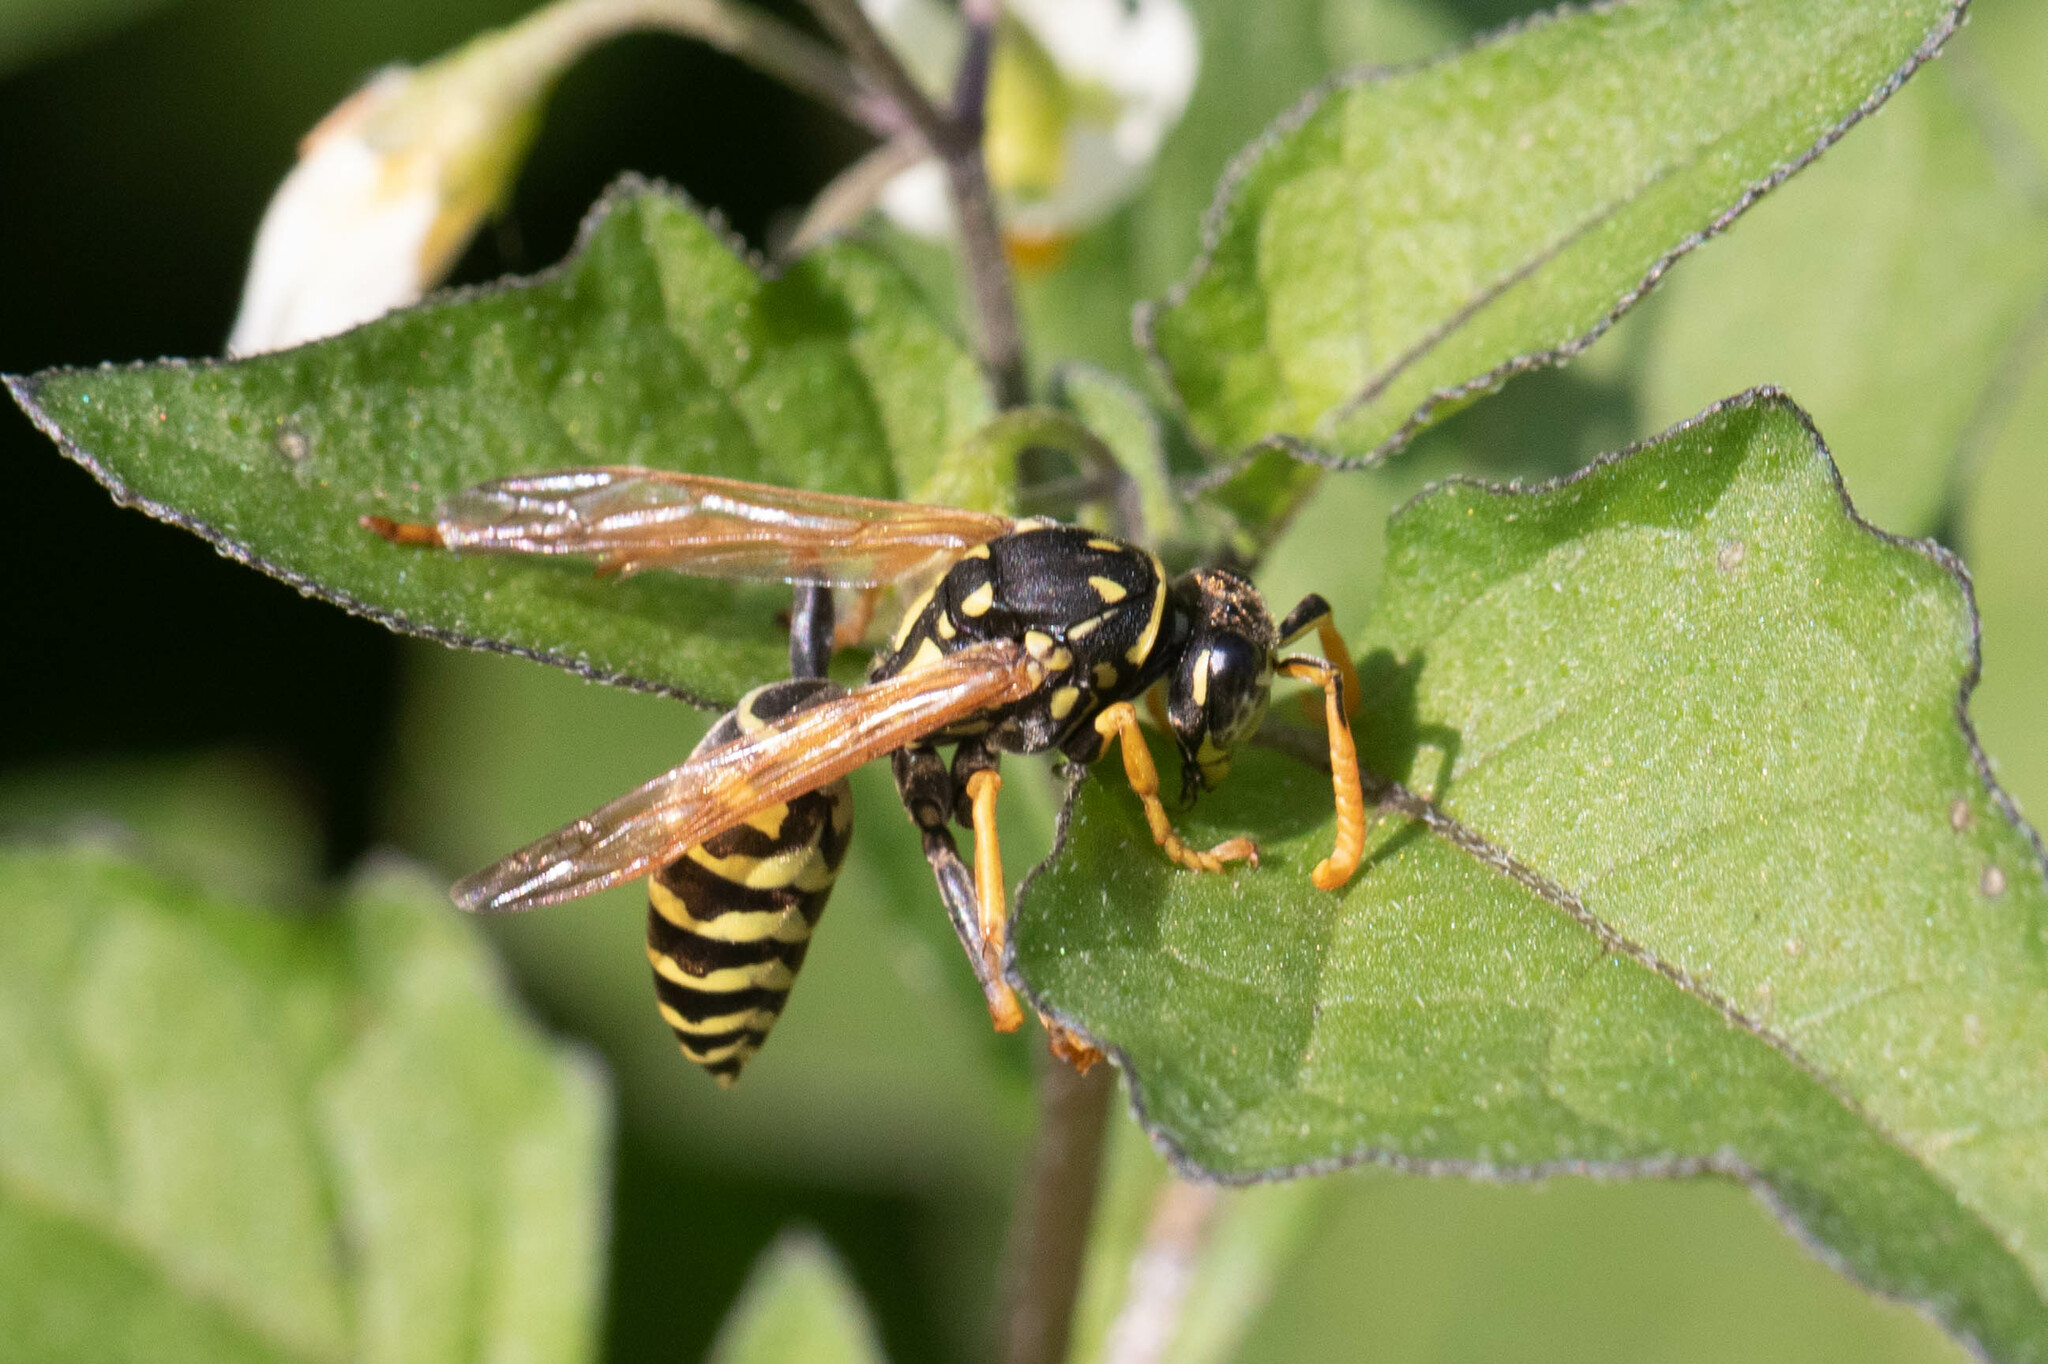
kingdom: Animalia
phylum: Arthropoda
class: Insecta
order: Hymenoptera
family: Eumenidae
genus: Polistes
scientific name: Polistes dominula
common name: Paper wasp
